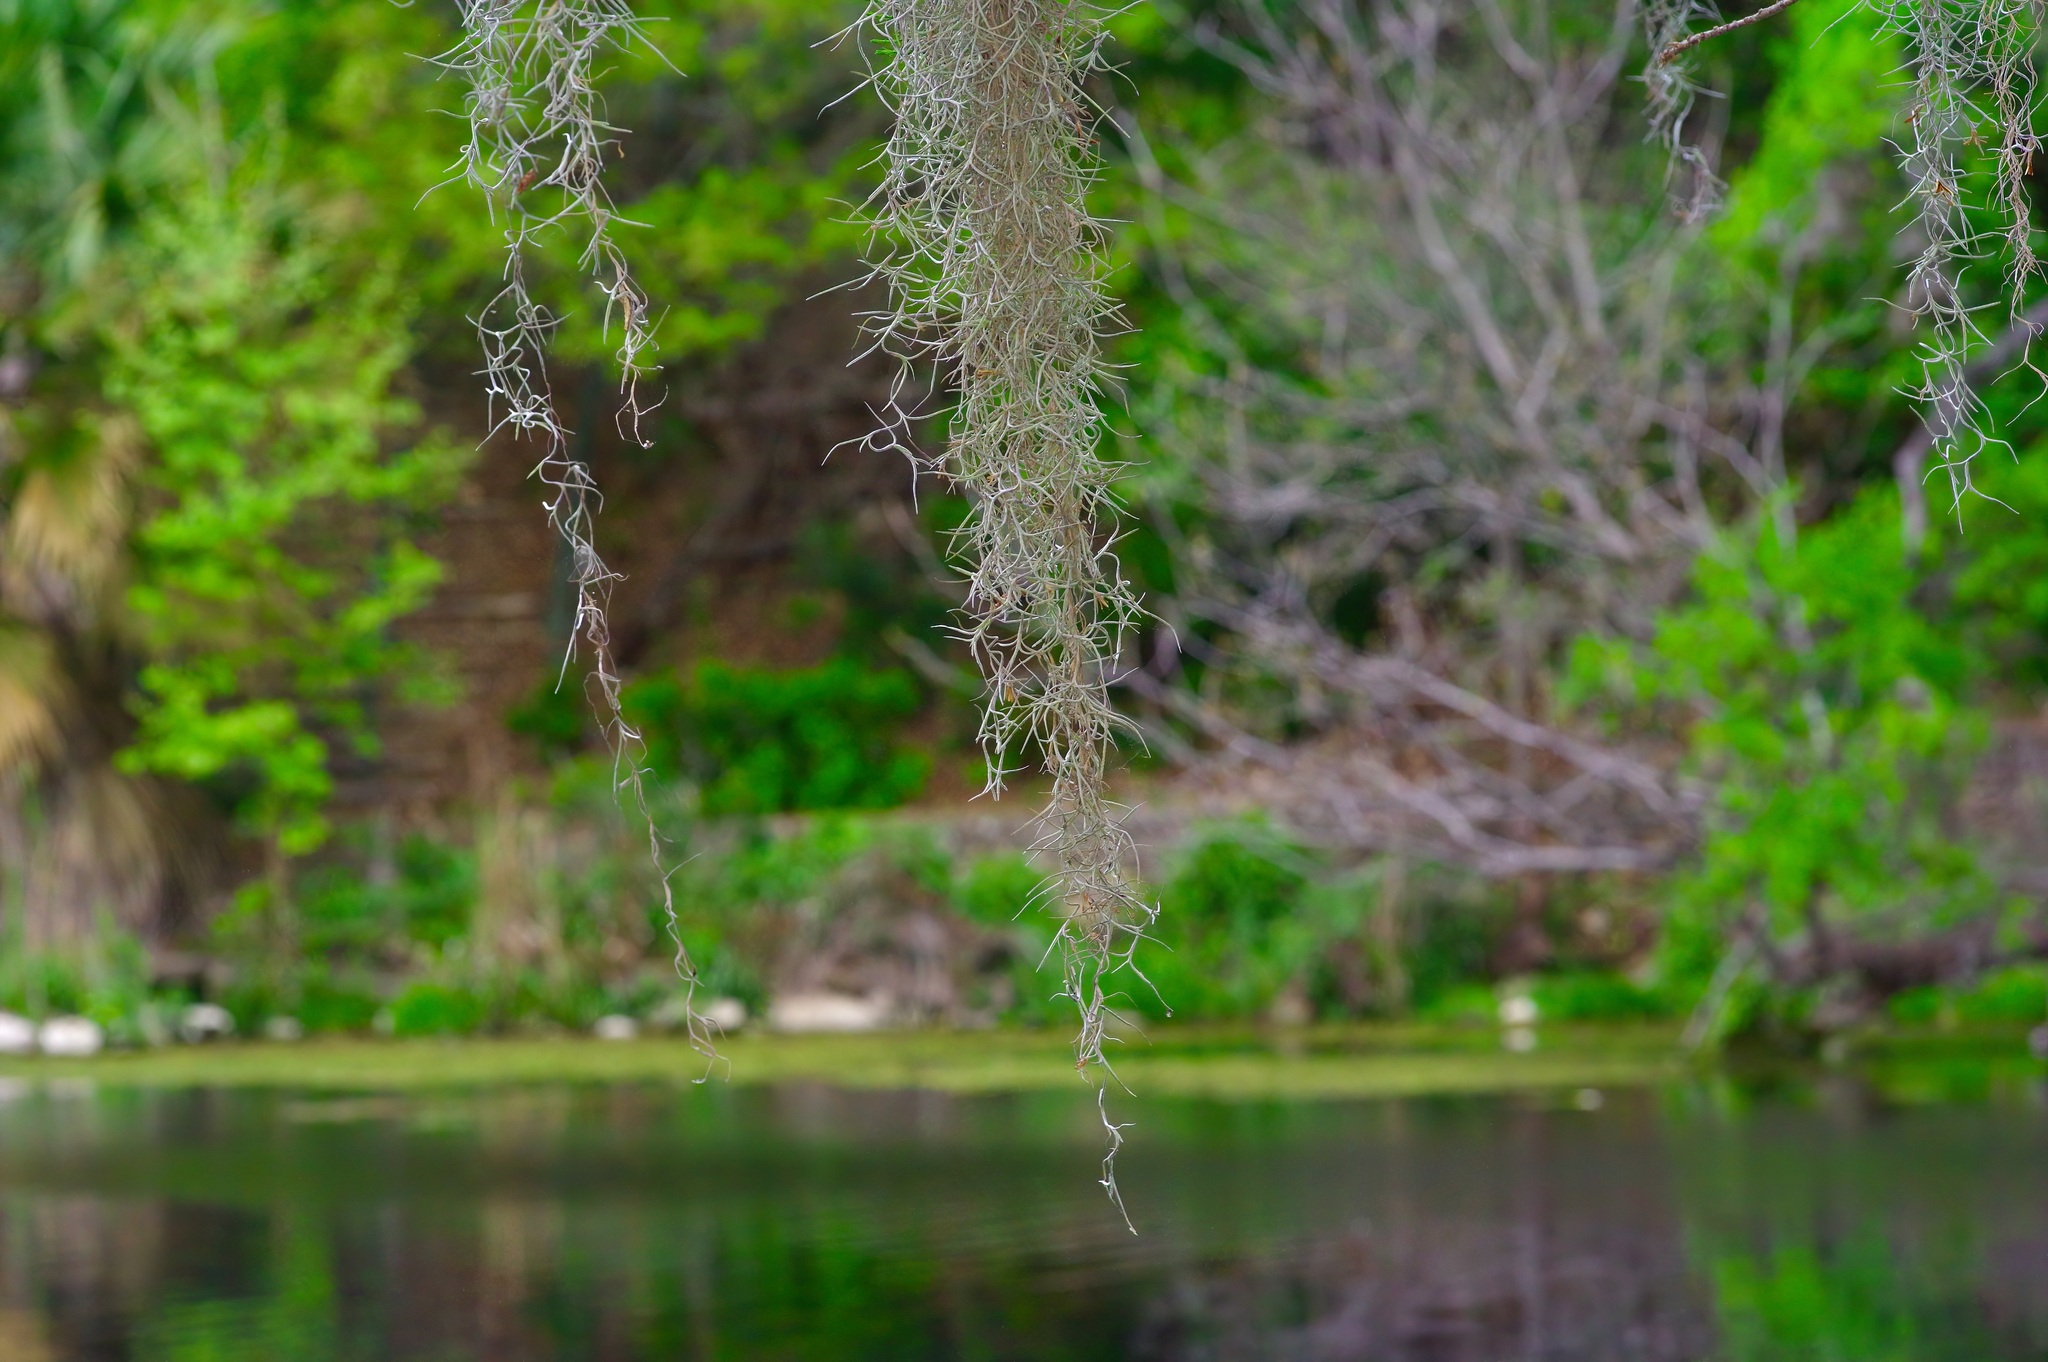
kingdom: Plantae
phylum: Tracheophyta
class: Liliopsida
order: Poales
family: Bromeliaceae
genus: Tillandsia
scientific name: Tillandsia usneoides
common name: Spanish moss
